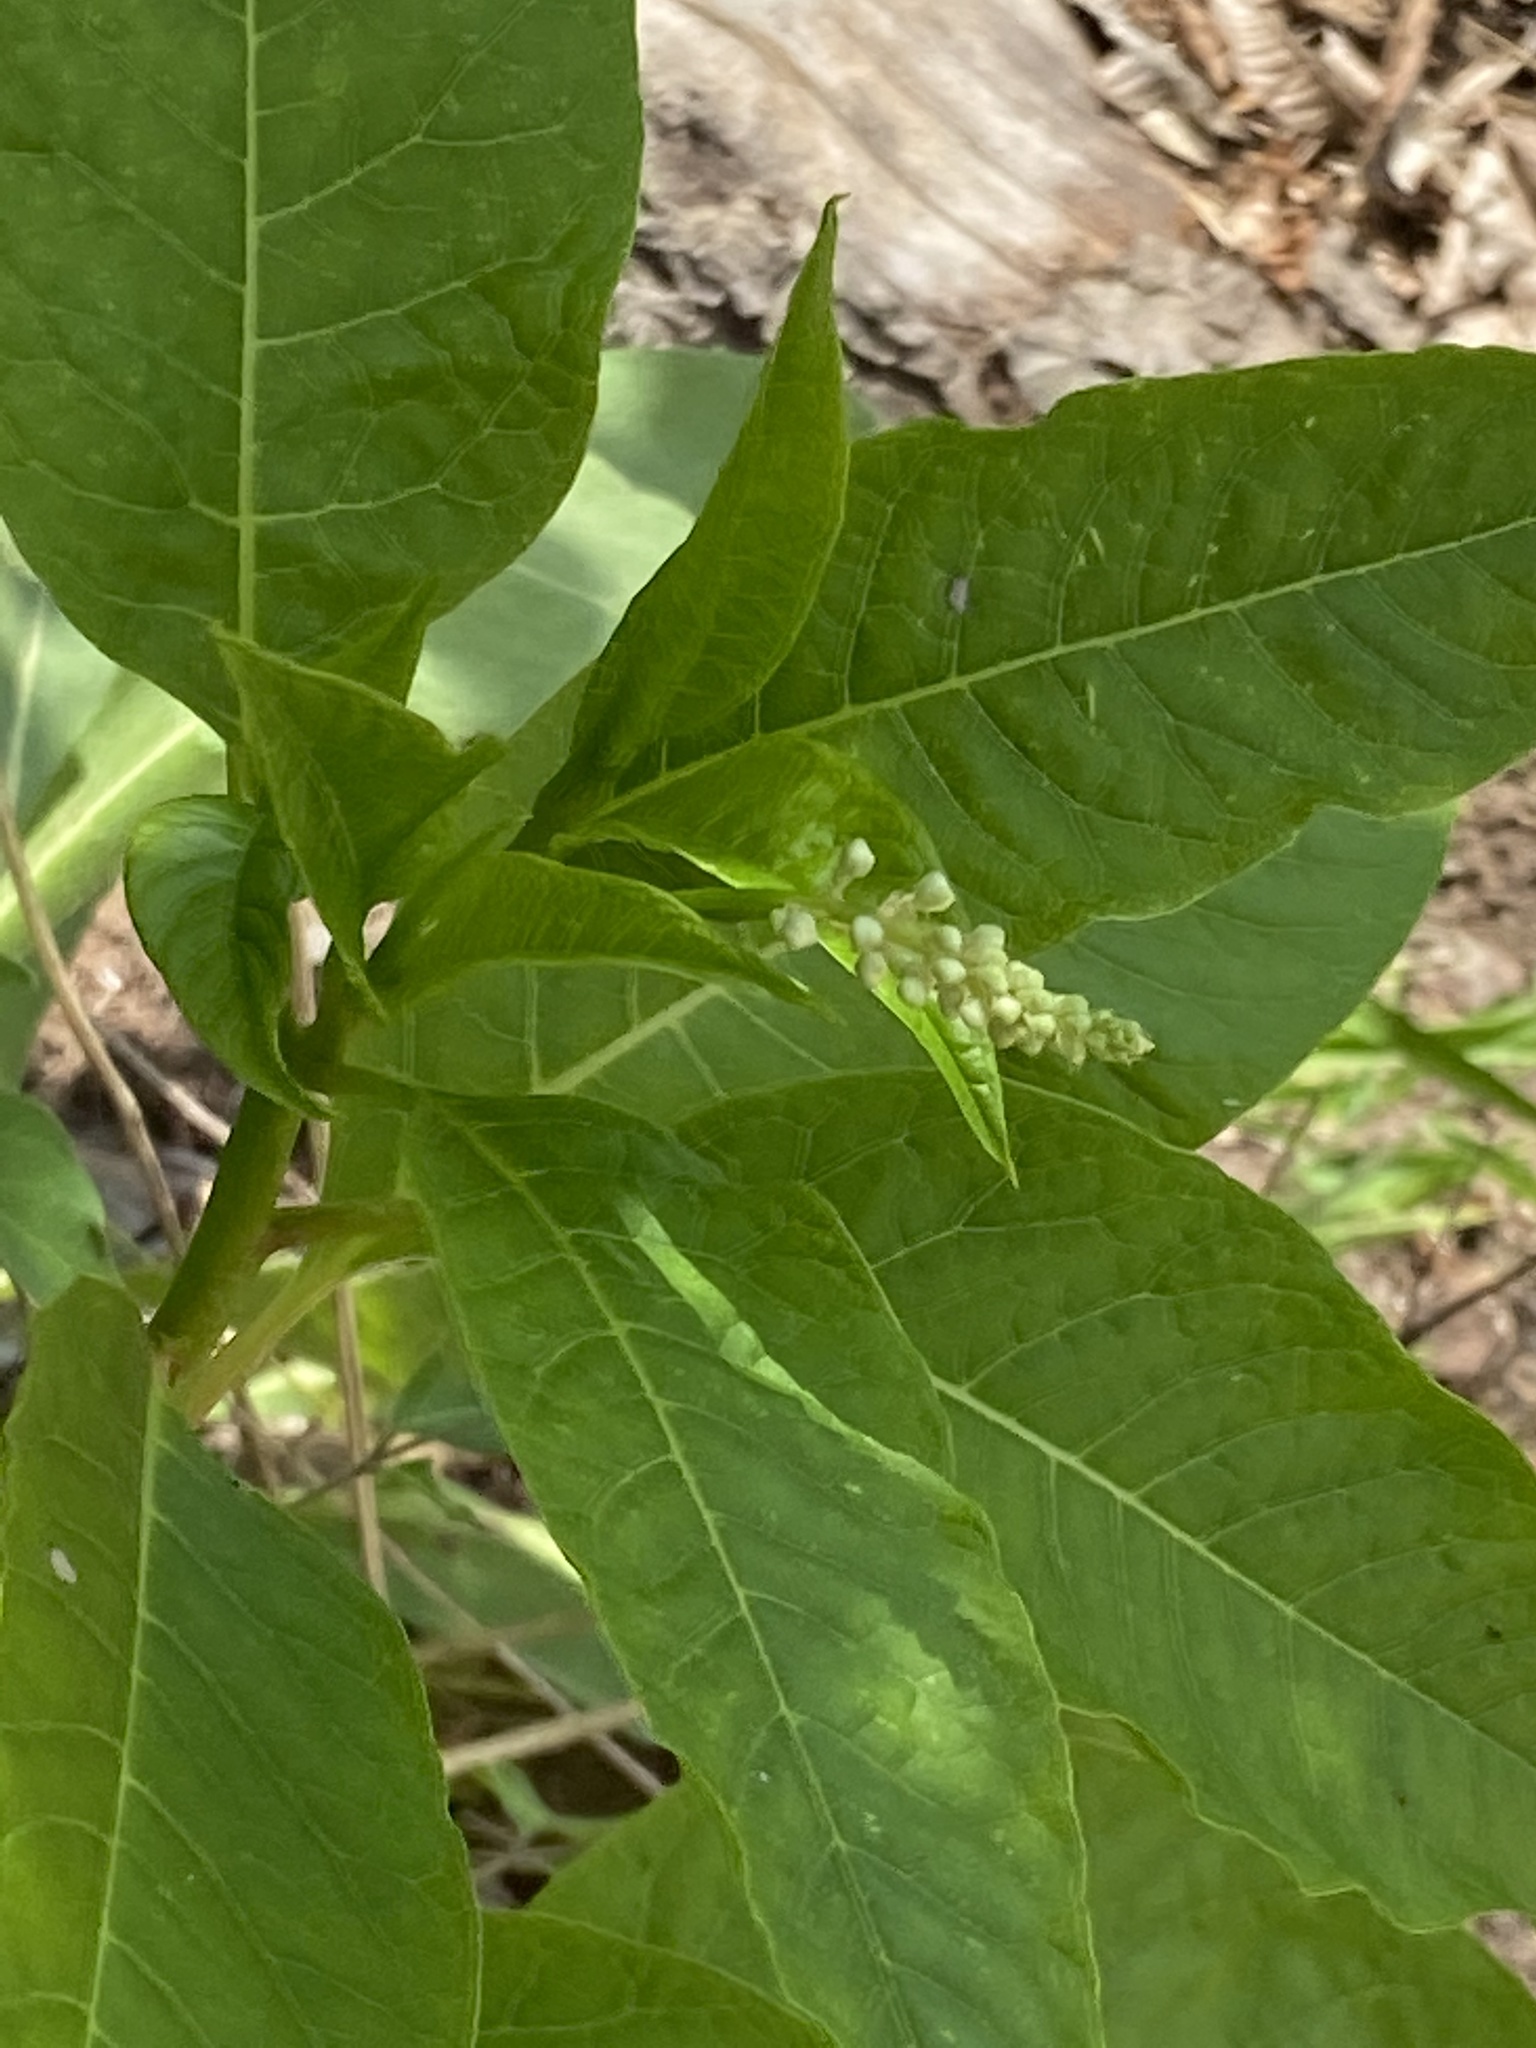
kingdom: Plantae
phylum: Tracheophyta
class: Magnoliopsida
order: Caryophyllales
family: Phytolaccaceae
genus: Phytolacca
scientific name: Phytolacca americana
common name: American pokeweed
